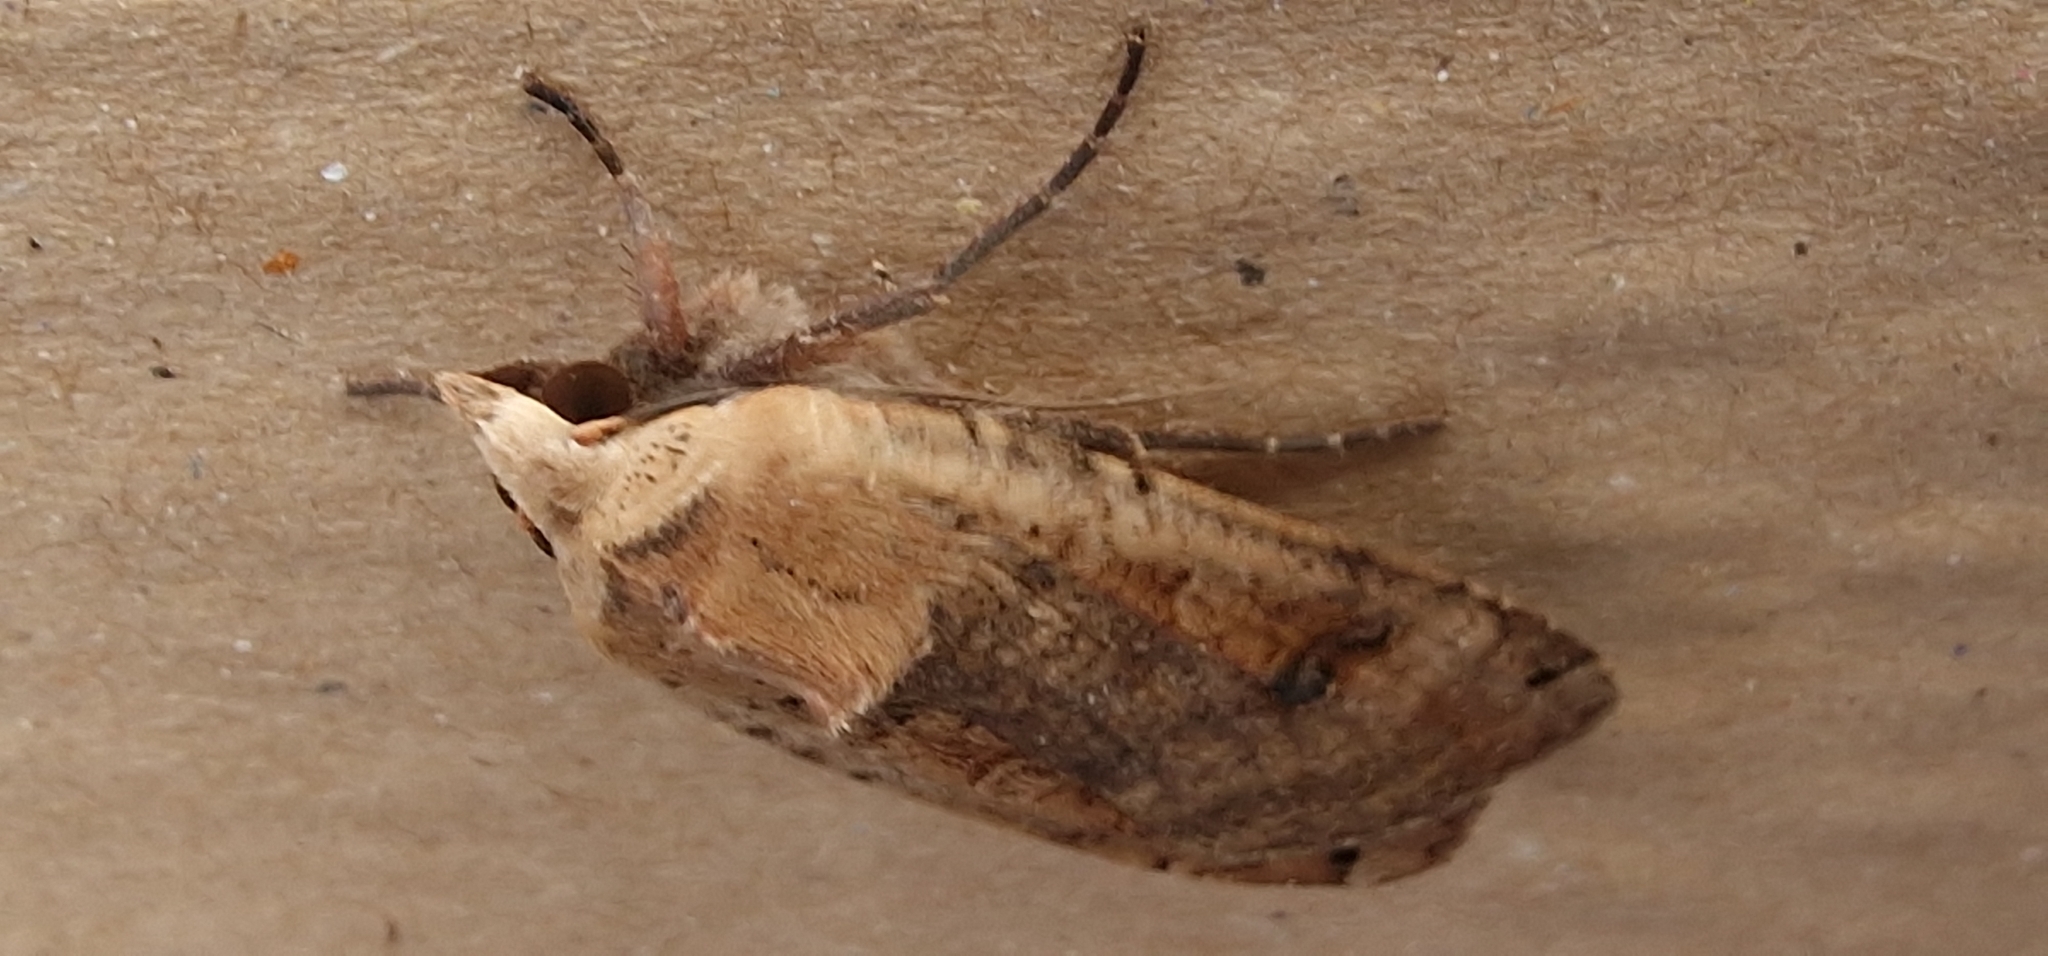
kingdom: Animalia
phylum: Arthropoda
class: Insecta
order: Lepidoptera
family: Noctuidae
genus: Noctua
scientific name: Noctua pronuba
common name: Large yellow underwing
